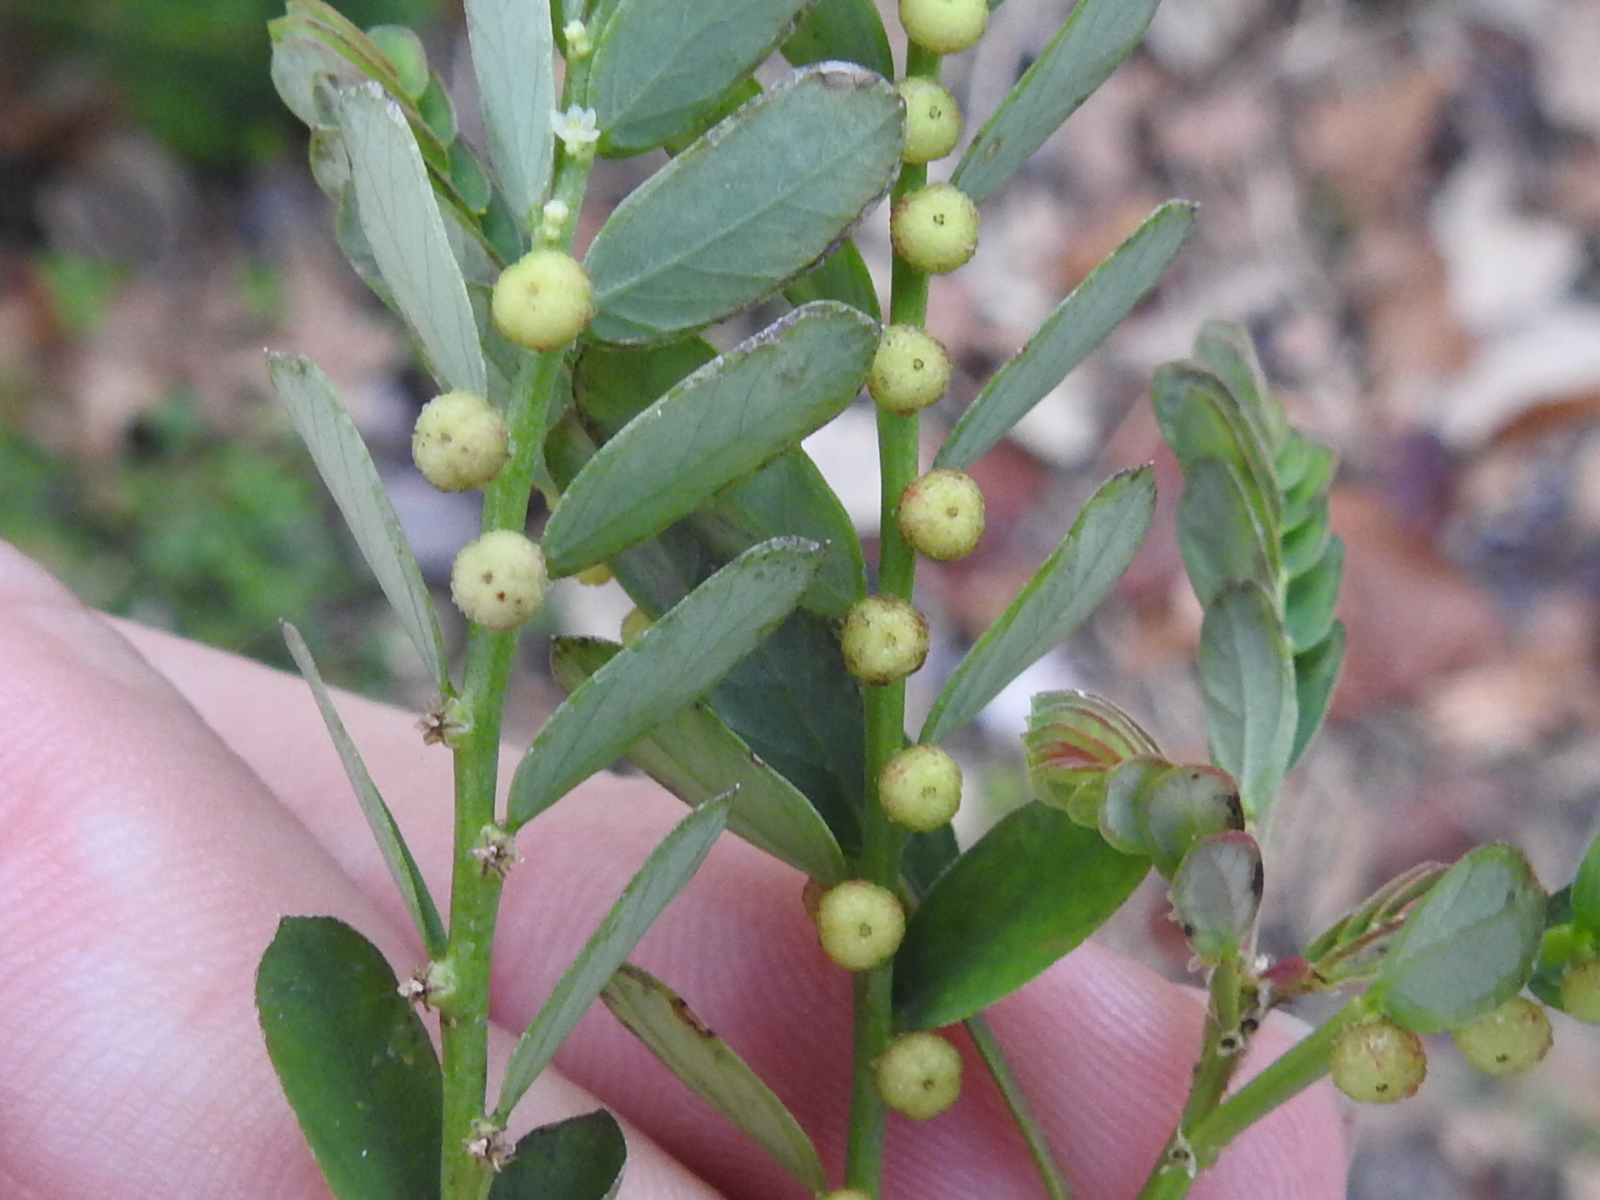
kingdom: Plantae
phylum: Tracheophyta
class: Magnoliopsida
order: Malpighiales
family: Phyllanthaceae
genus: Phyllanthus
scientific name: Phyllanthus urinaria
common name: Chamber bitter
